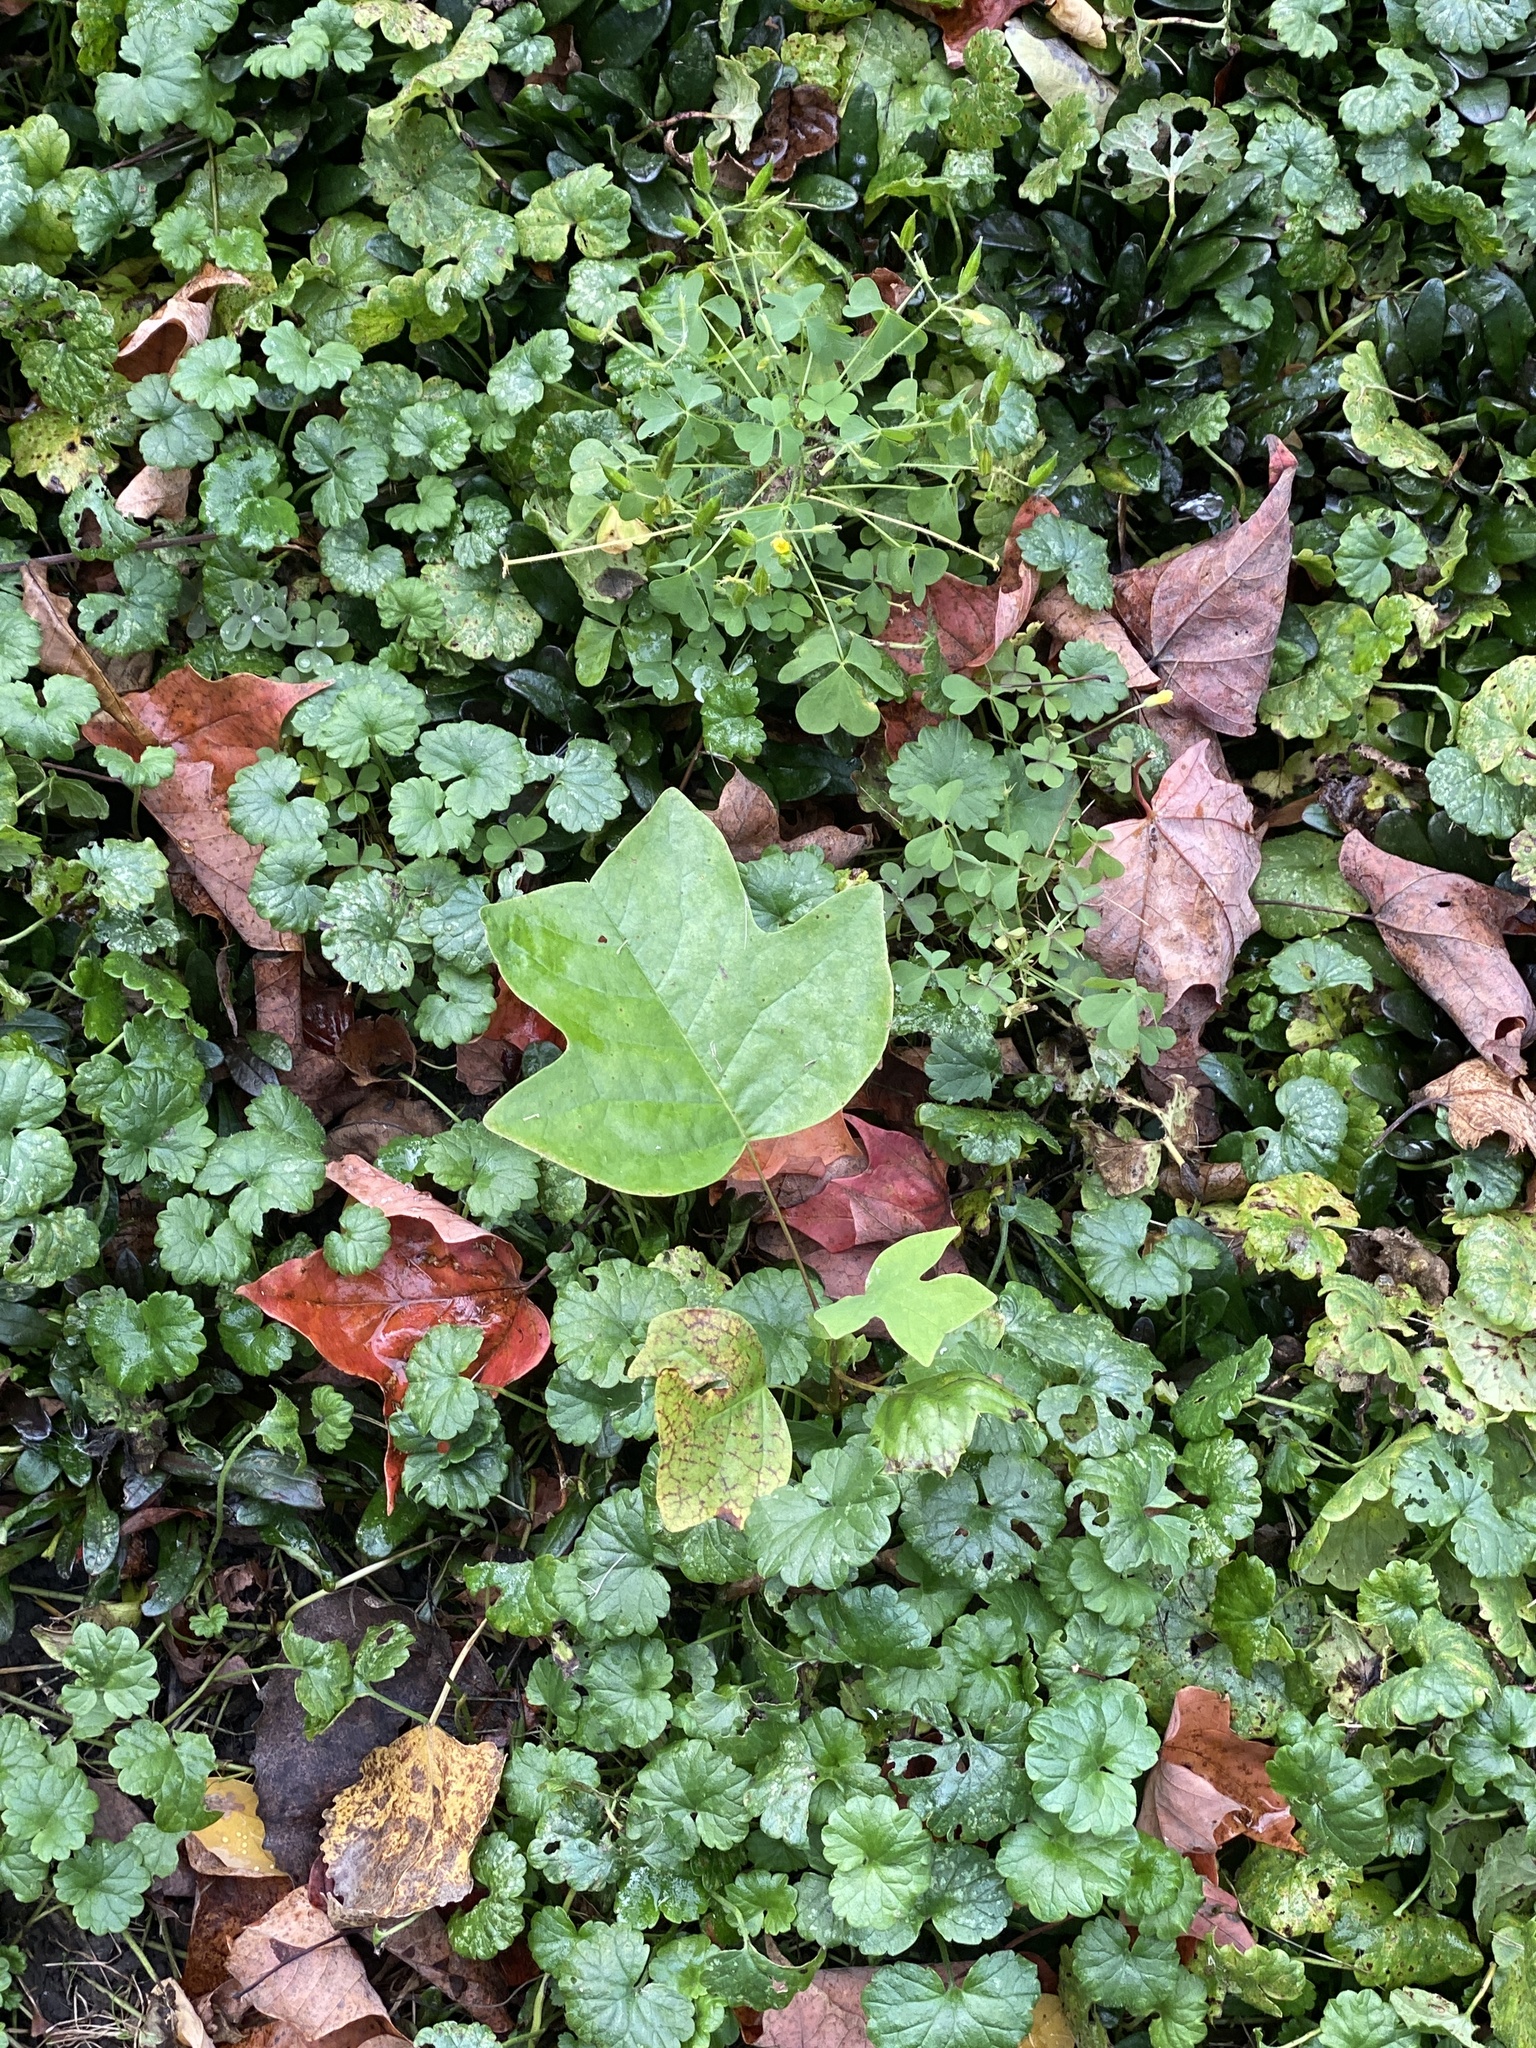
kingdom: Plantae
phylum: Tracheophyta
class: Magnoliopsida
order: Magnoliales
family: Magnoliaceae
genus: Liriodendron
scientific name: Liriodendron tulipifera
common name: Tulip tree
